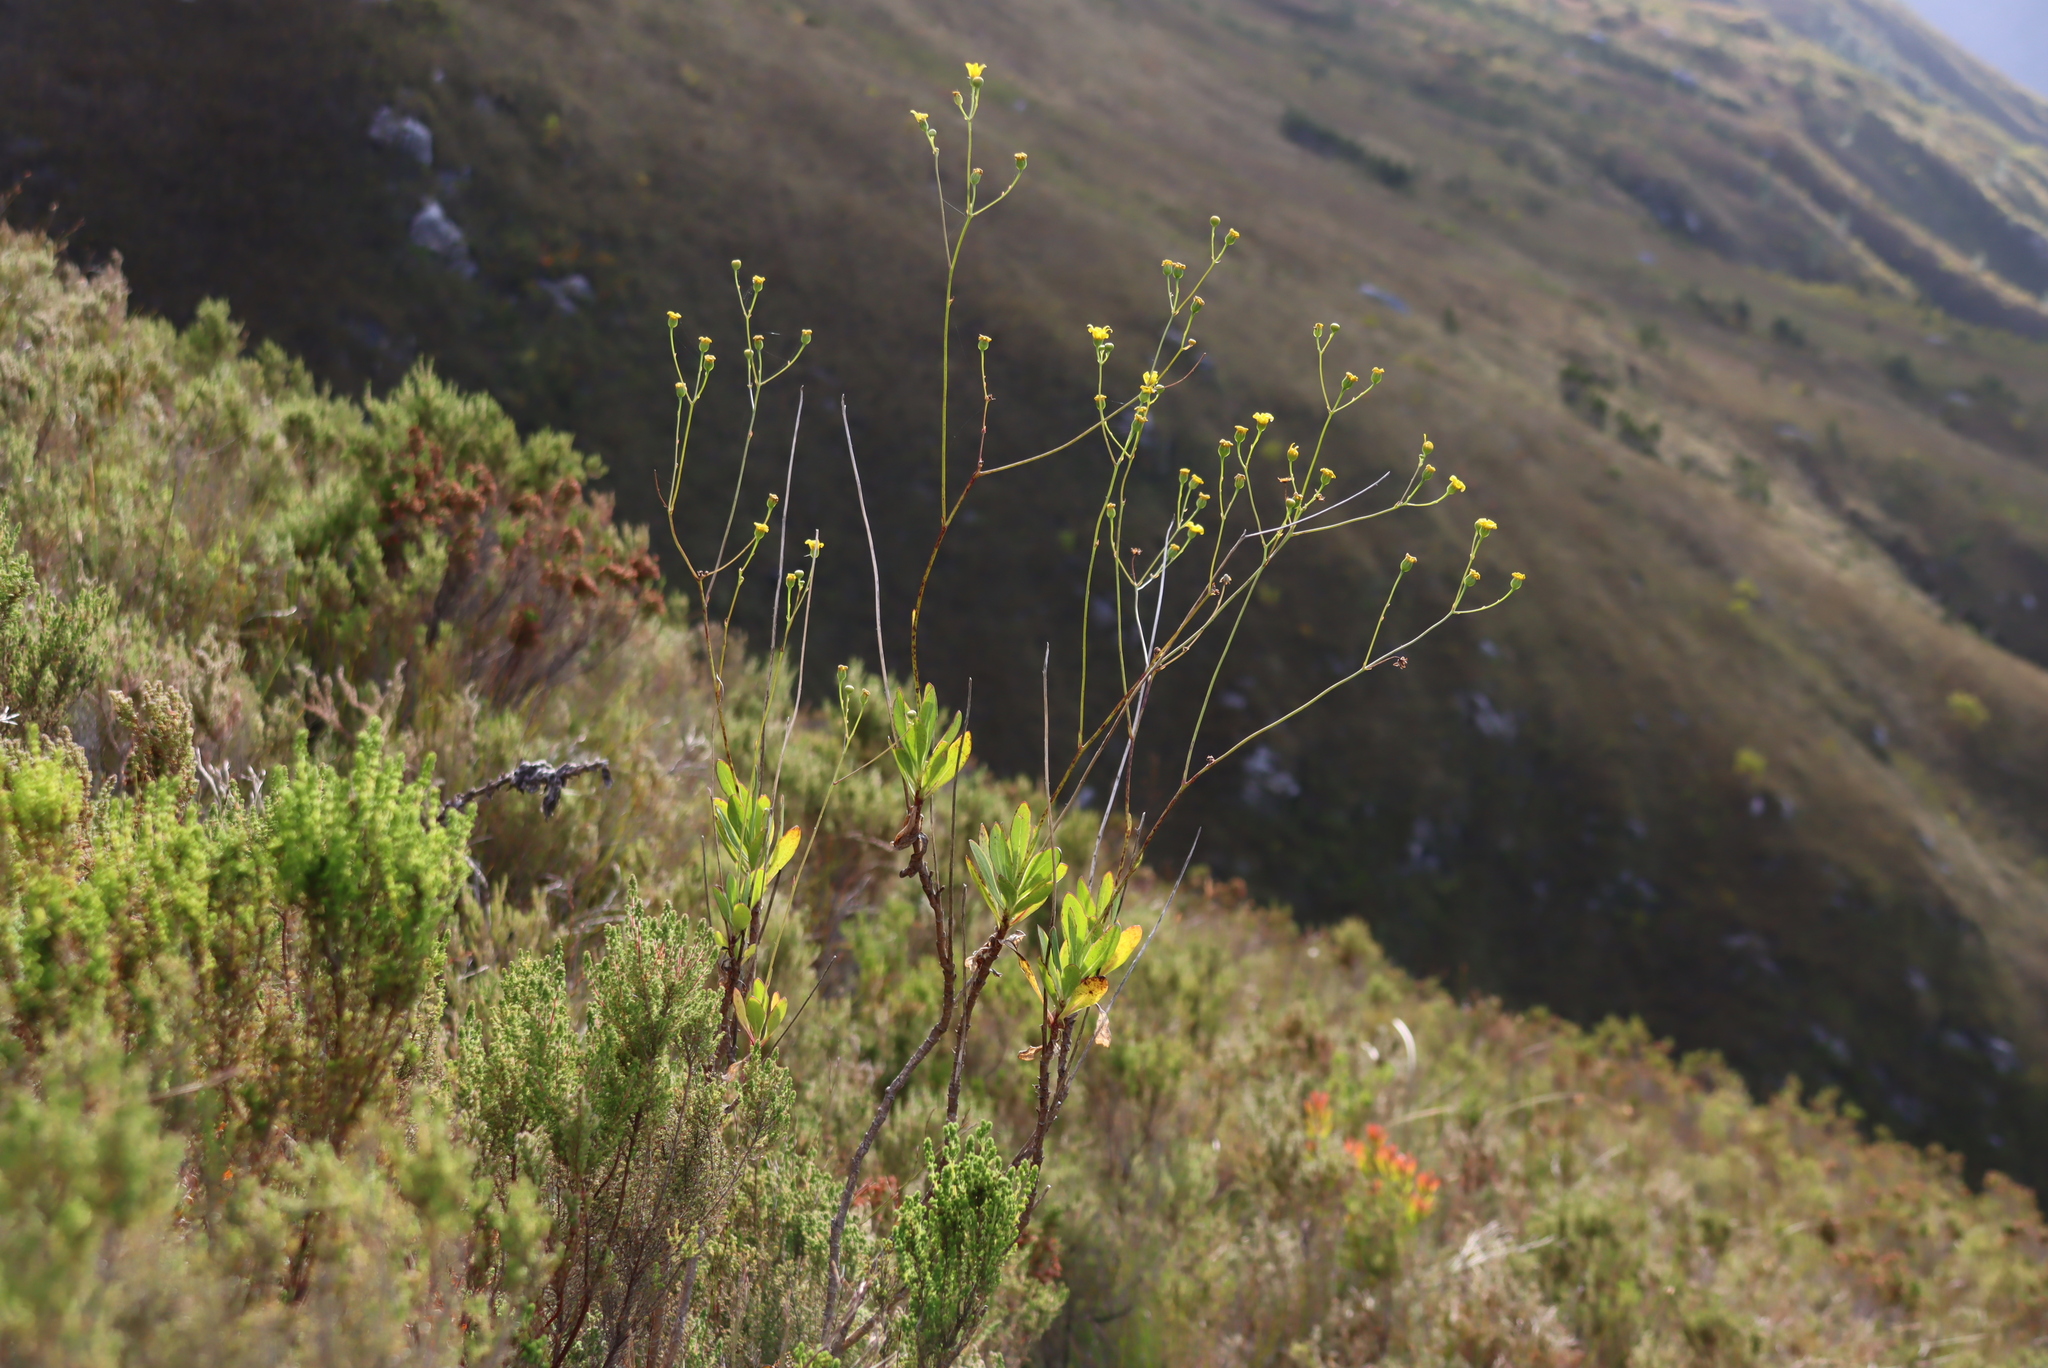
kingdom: Plantae
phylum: Tracheophyta
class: Magnoliopsida
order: Asterales
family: Asteraceae
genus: Othonna
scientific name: Othonna quinquedentata
